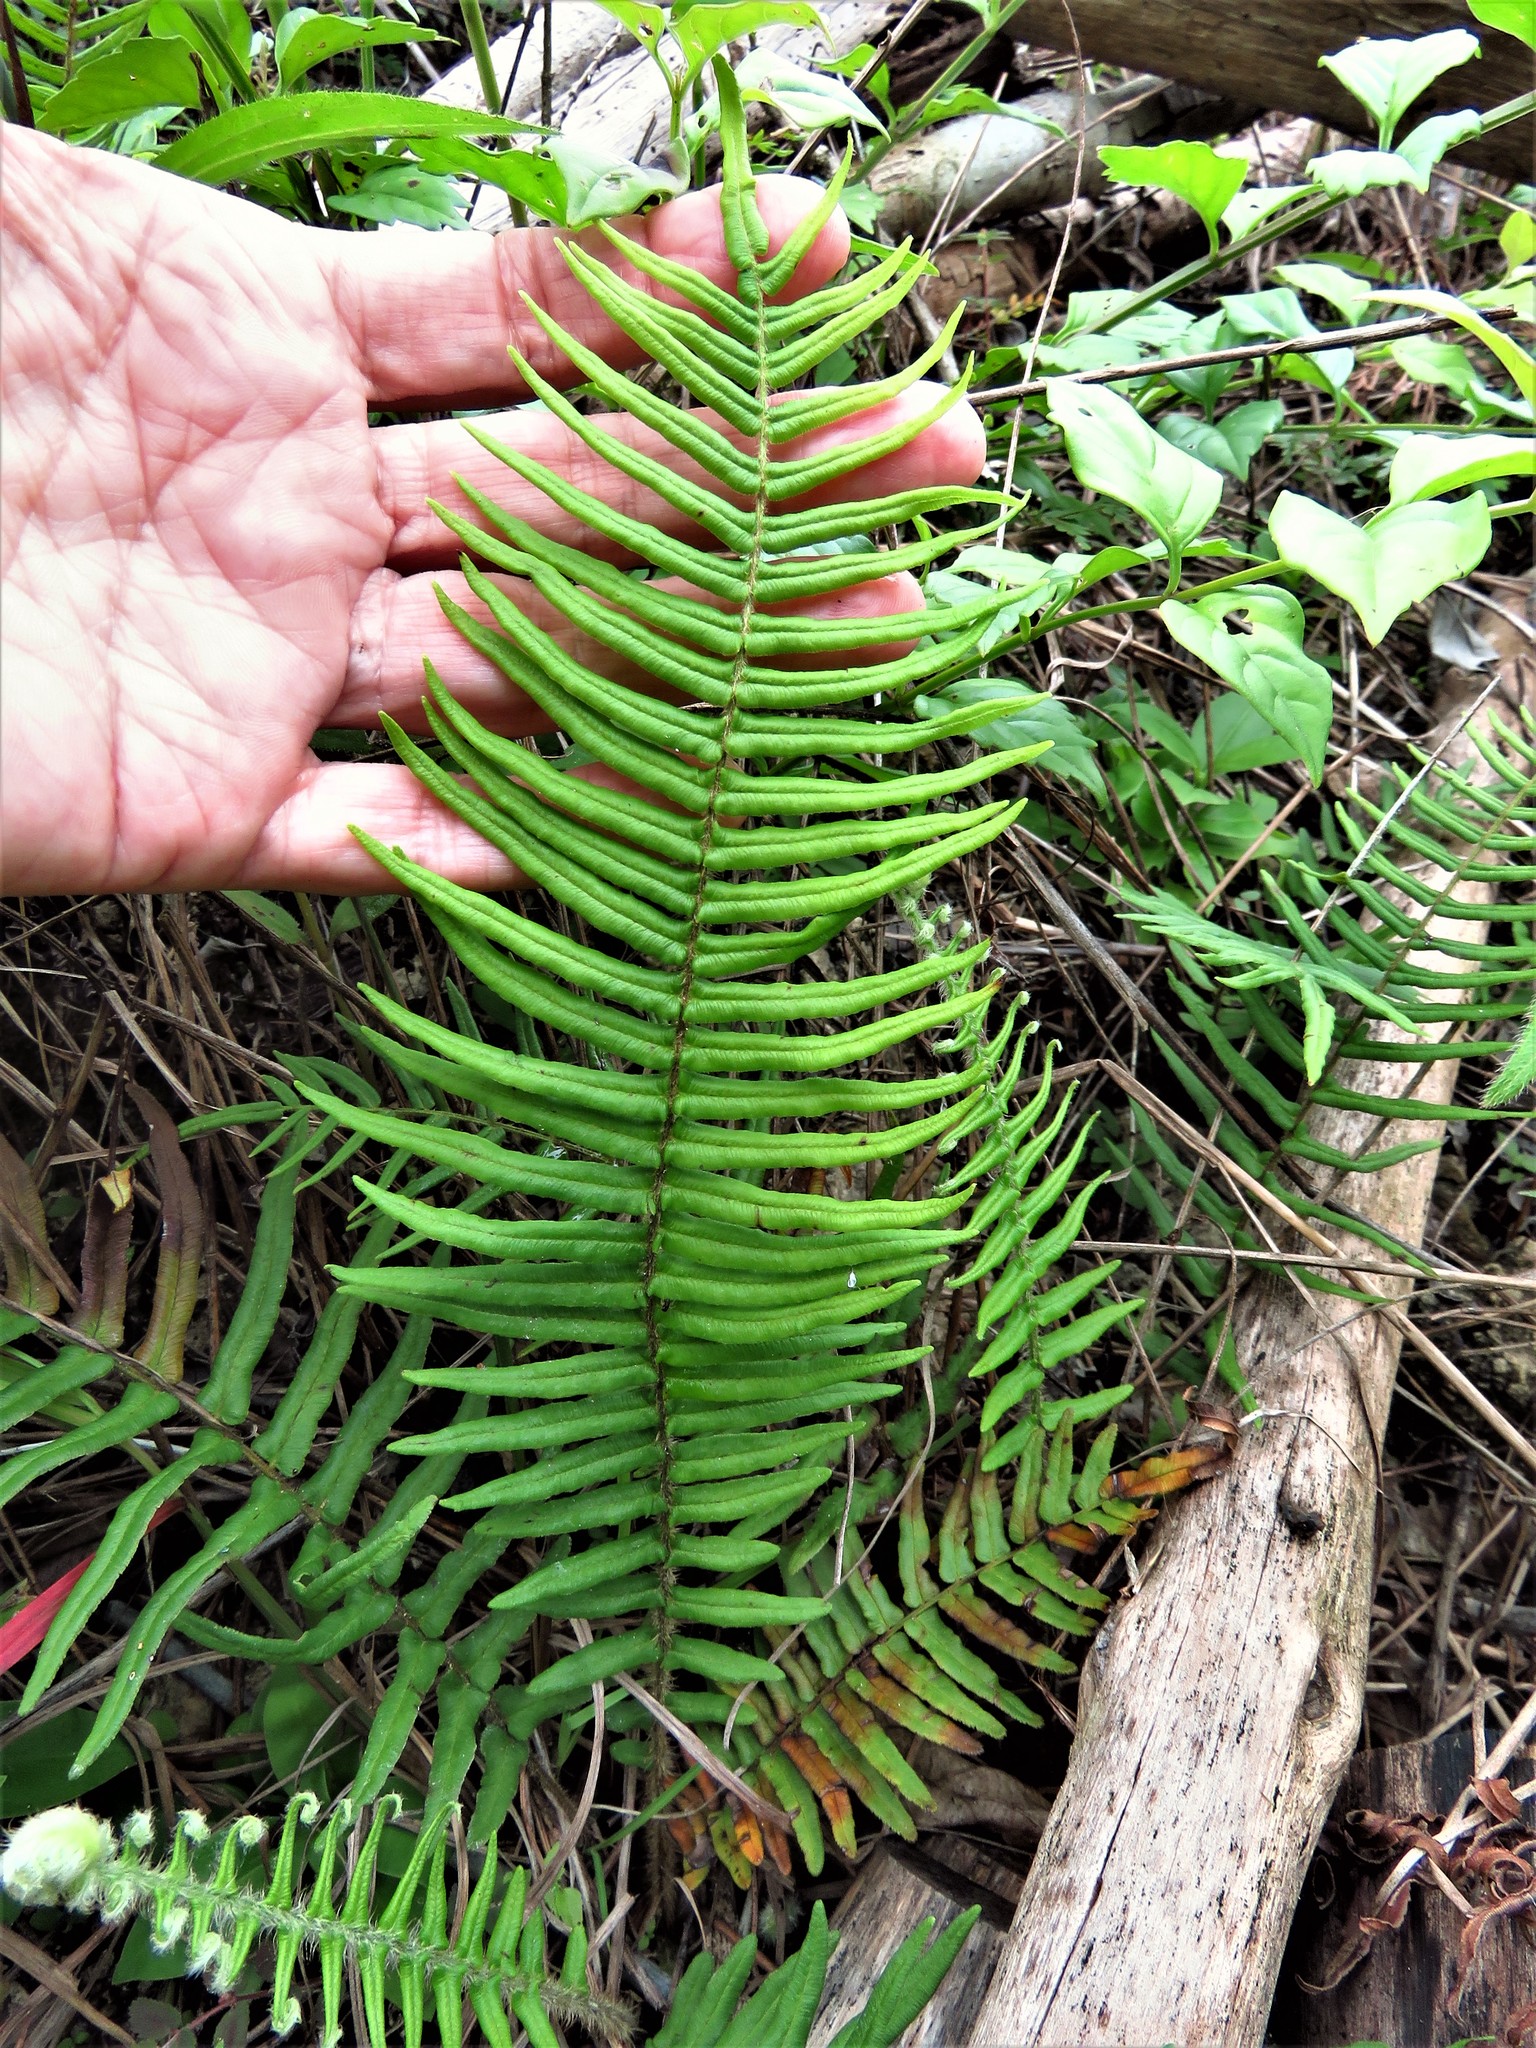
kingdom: Plantae
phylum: Tracheophyta
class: Polypodiopsida
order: Polypodiales
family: Pteridaceae
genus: Pteris
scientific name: Pteris vittata
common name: Ladder brake
